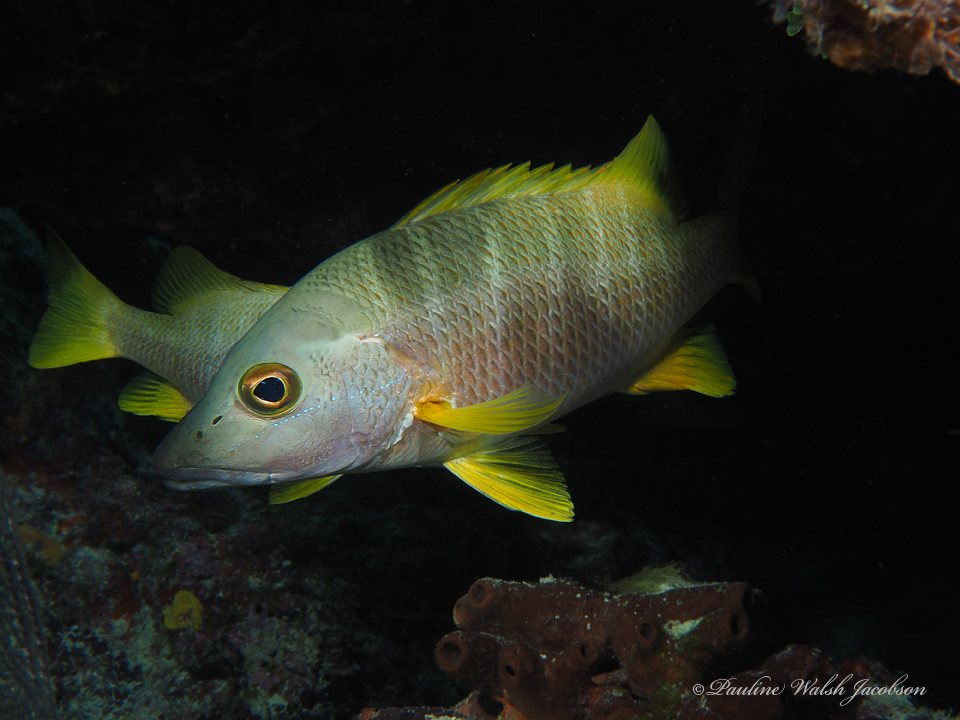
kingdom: Animalia
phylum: Chordata
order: Perciformes
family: Lutjanidae
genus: Lutjanus
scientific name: Lutjanus apodus
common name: Schoolmaster
